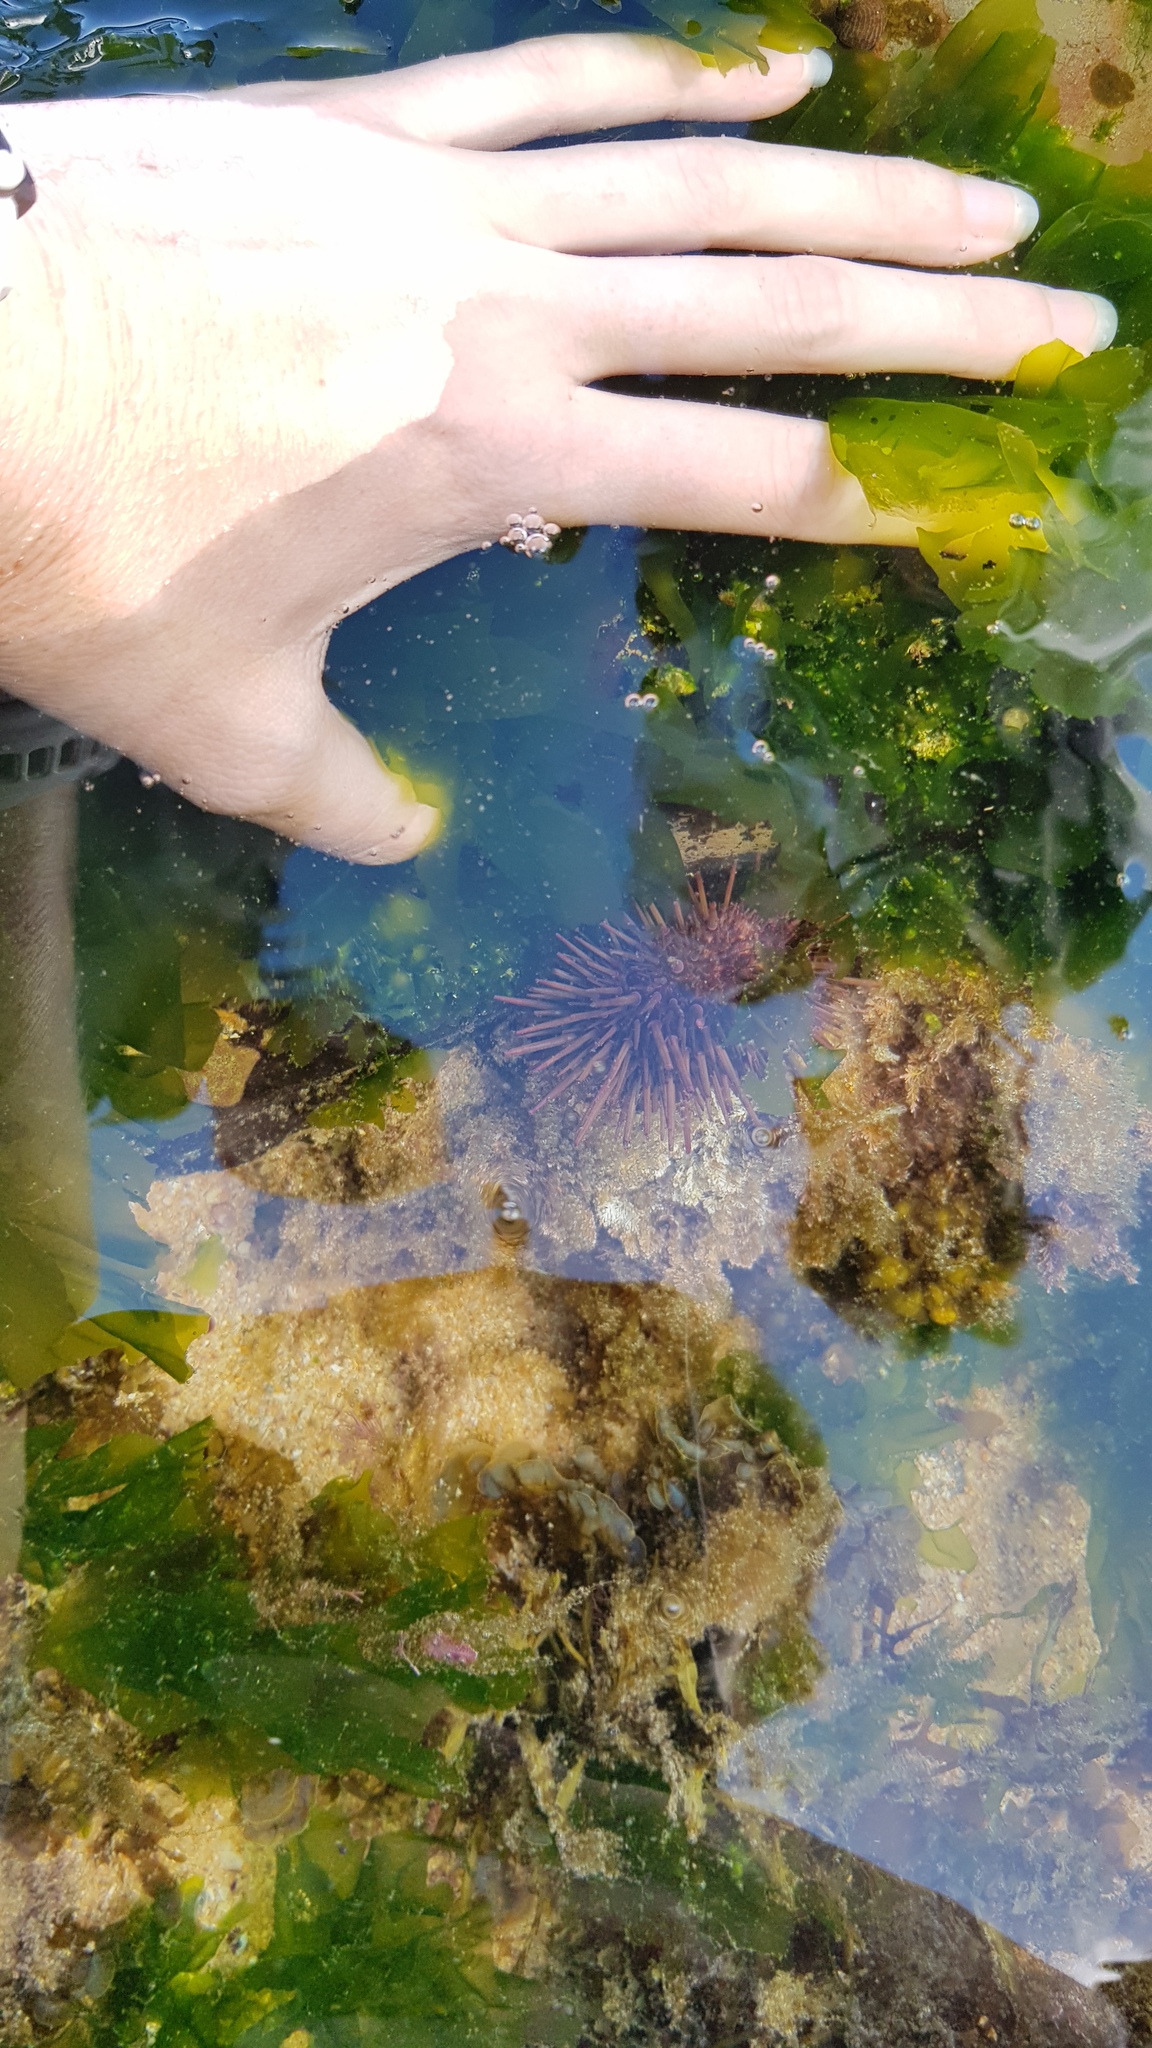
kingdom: Animalia
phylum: Echinodermata
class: Echinoidea
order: Camarodonta
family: Echinometridae
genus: Heliocidaris
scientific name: Heliocidaris erythrogramma
